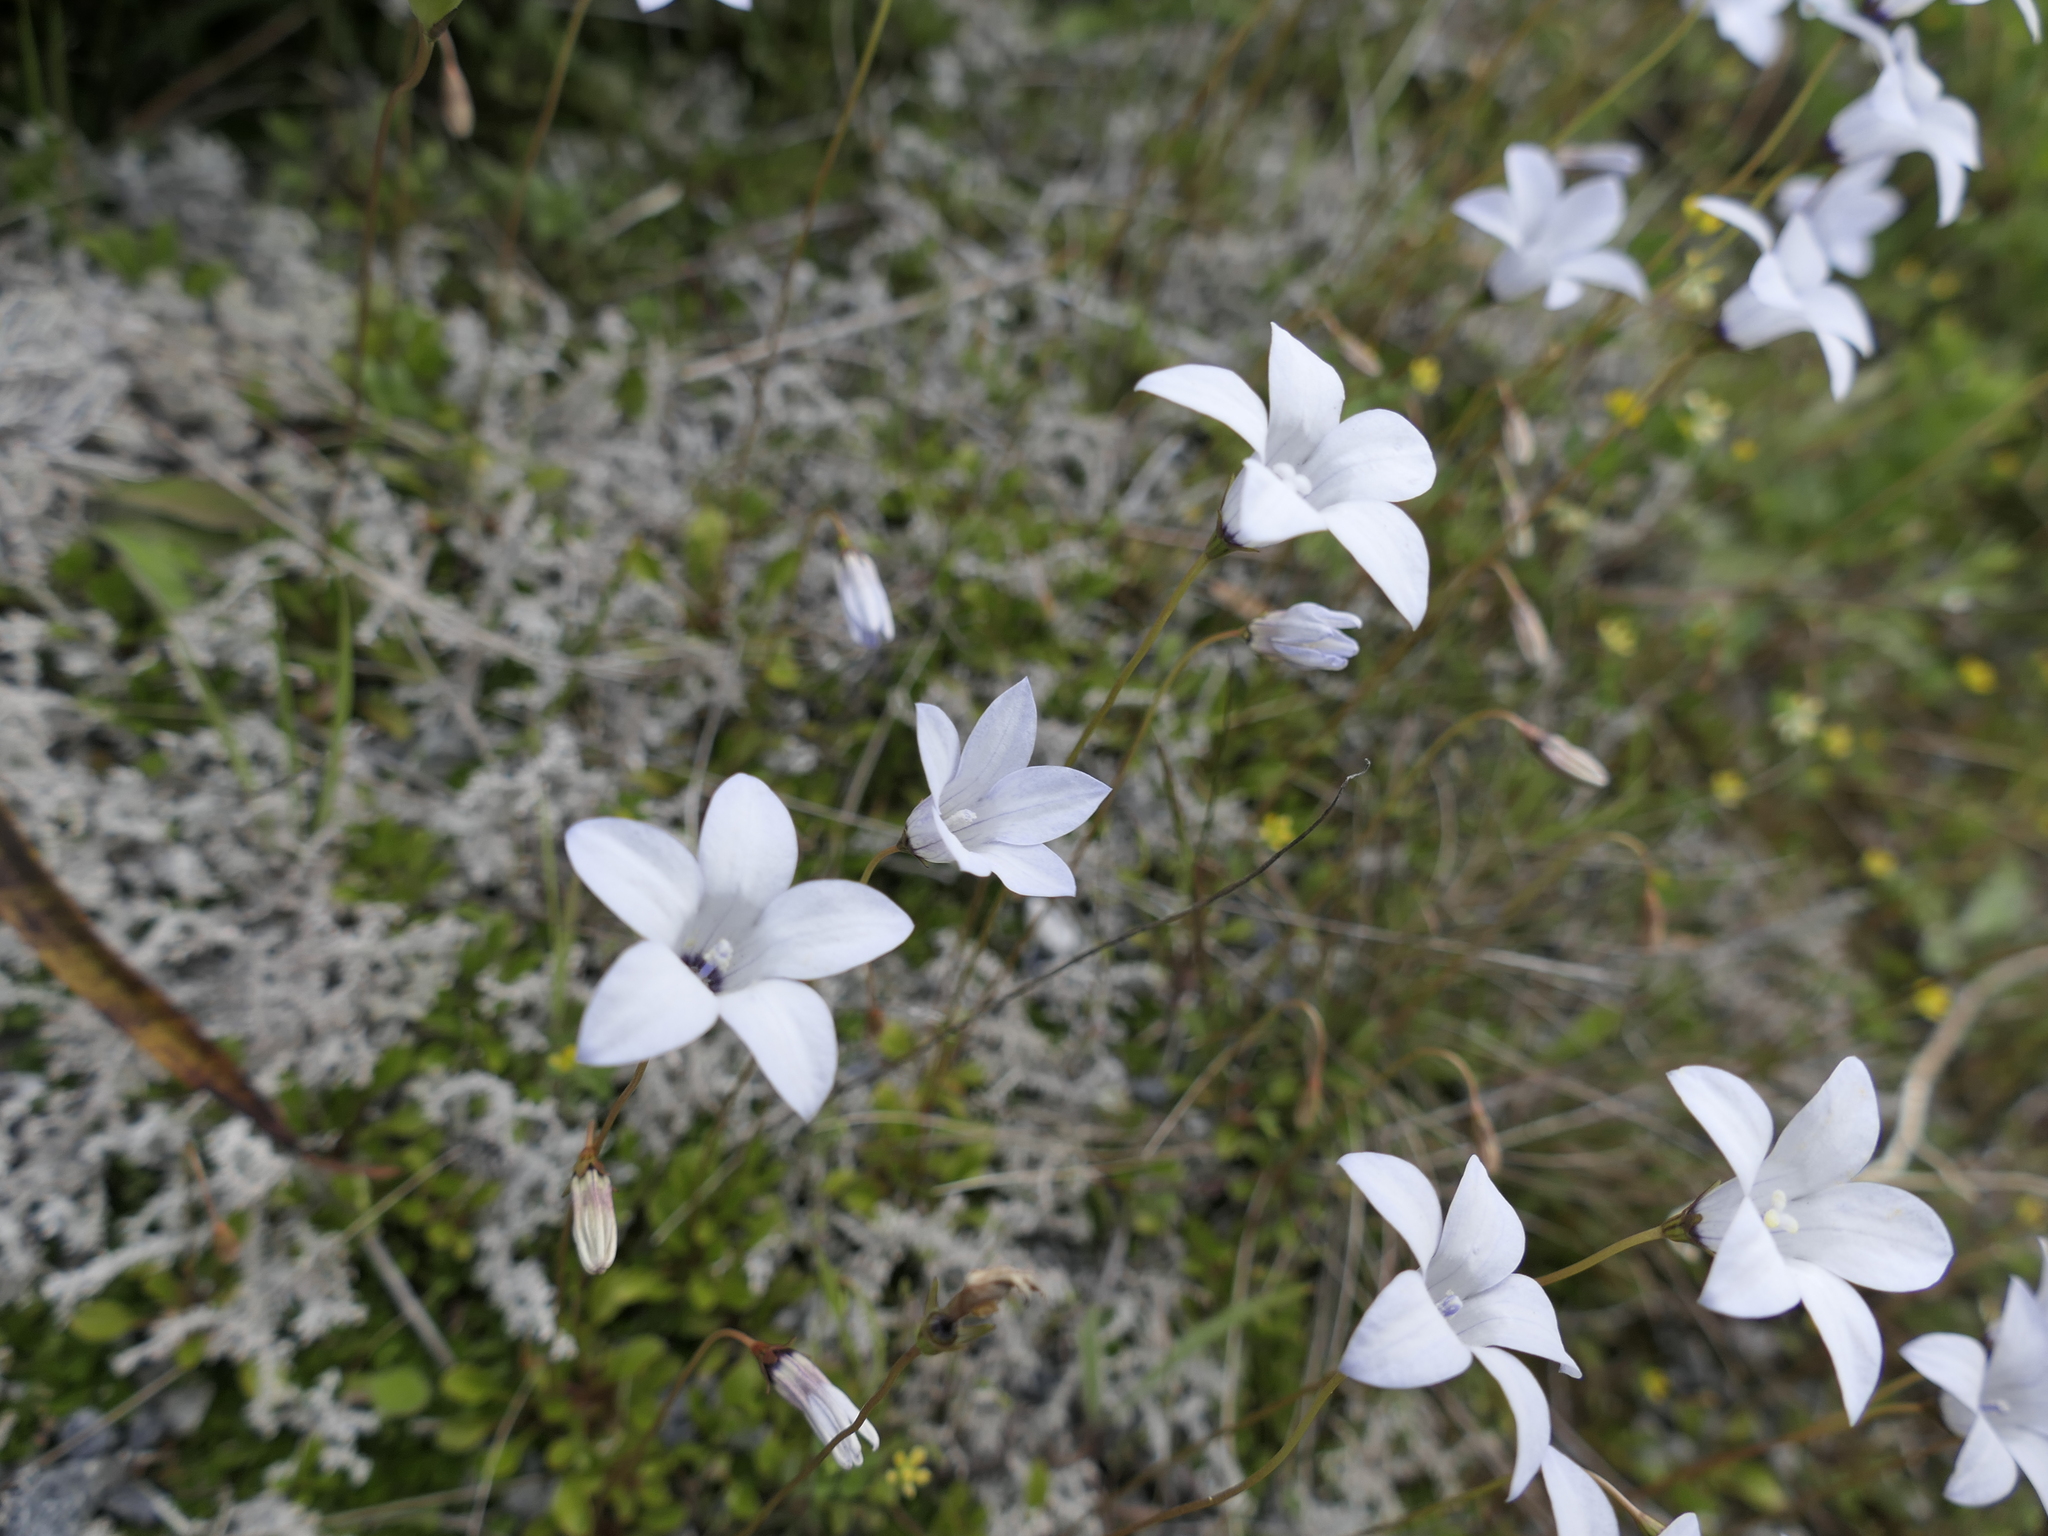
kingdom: Plantae
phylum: Tracheophyta
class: Magnoliopsida
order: Asterales
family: Campanulaceae
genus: Wahlenbergia
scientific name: Wahlenbergia albomarginata
